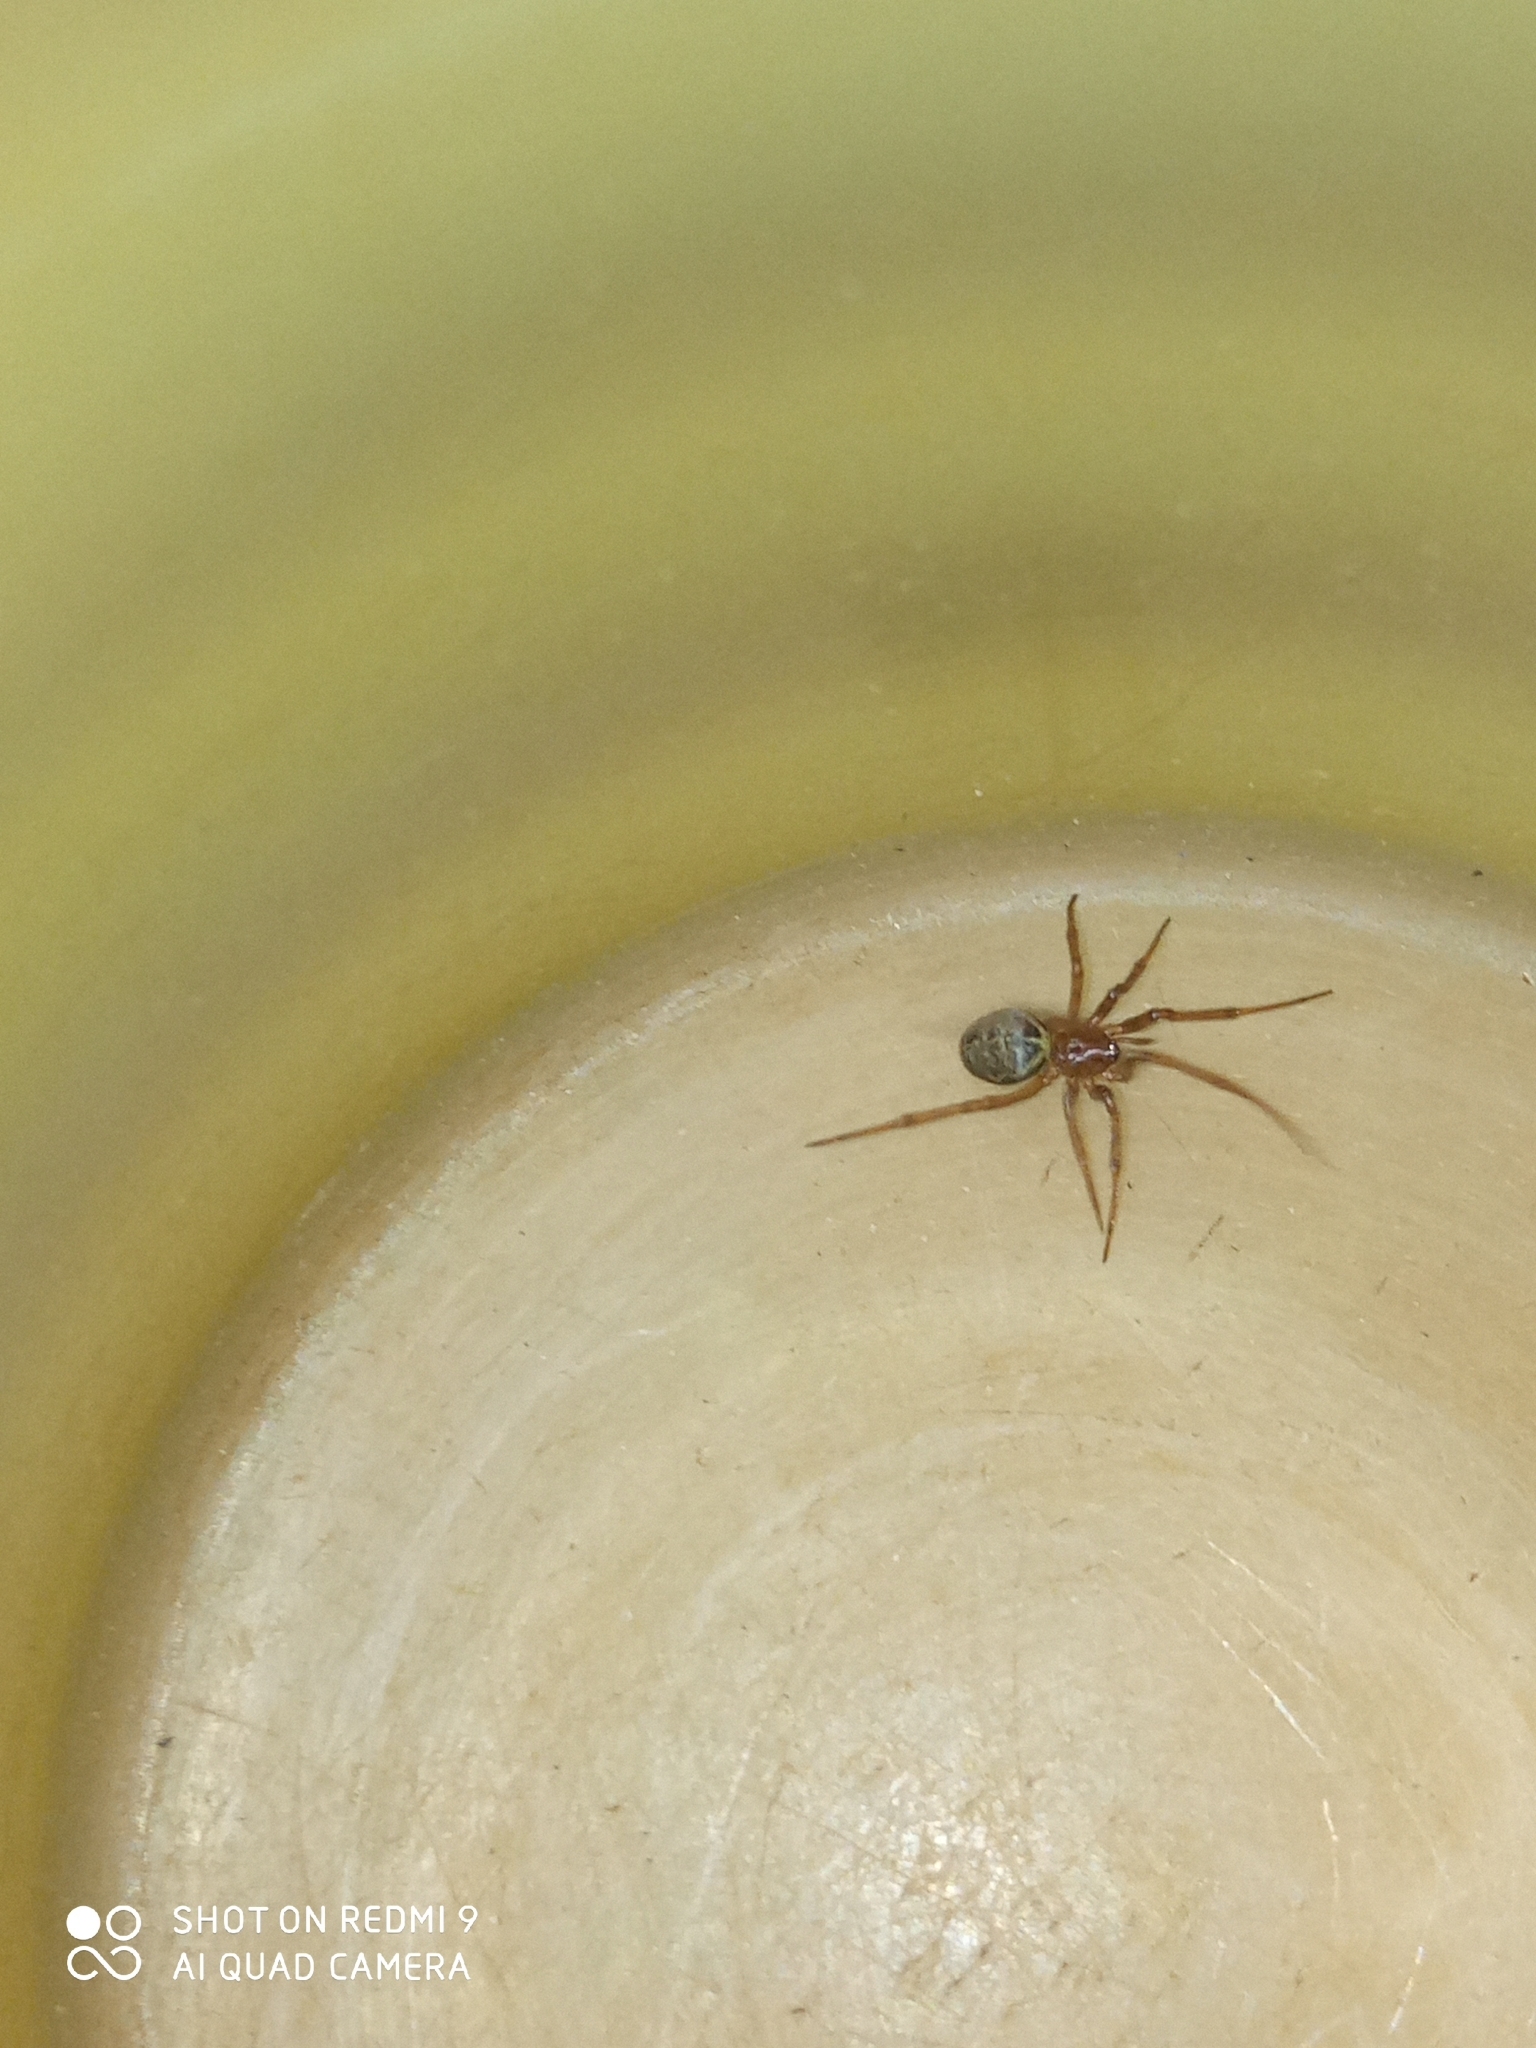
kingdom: Animalia
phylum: Arthropoda
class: Arachnida
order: Araneae
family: Theridiidae
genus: Steatoda
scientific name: Steatoda castanea
